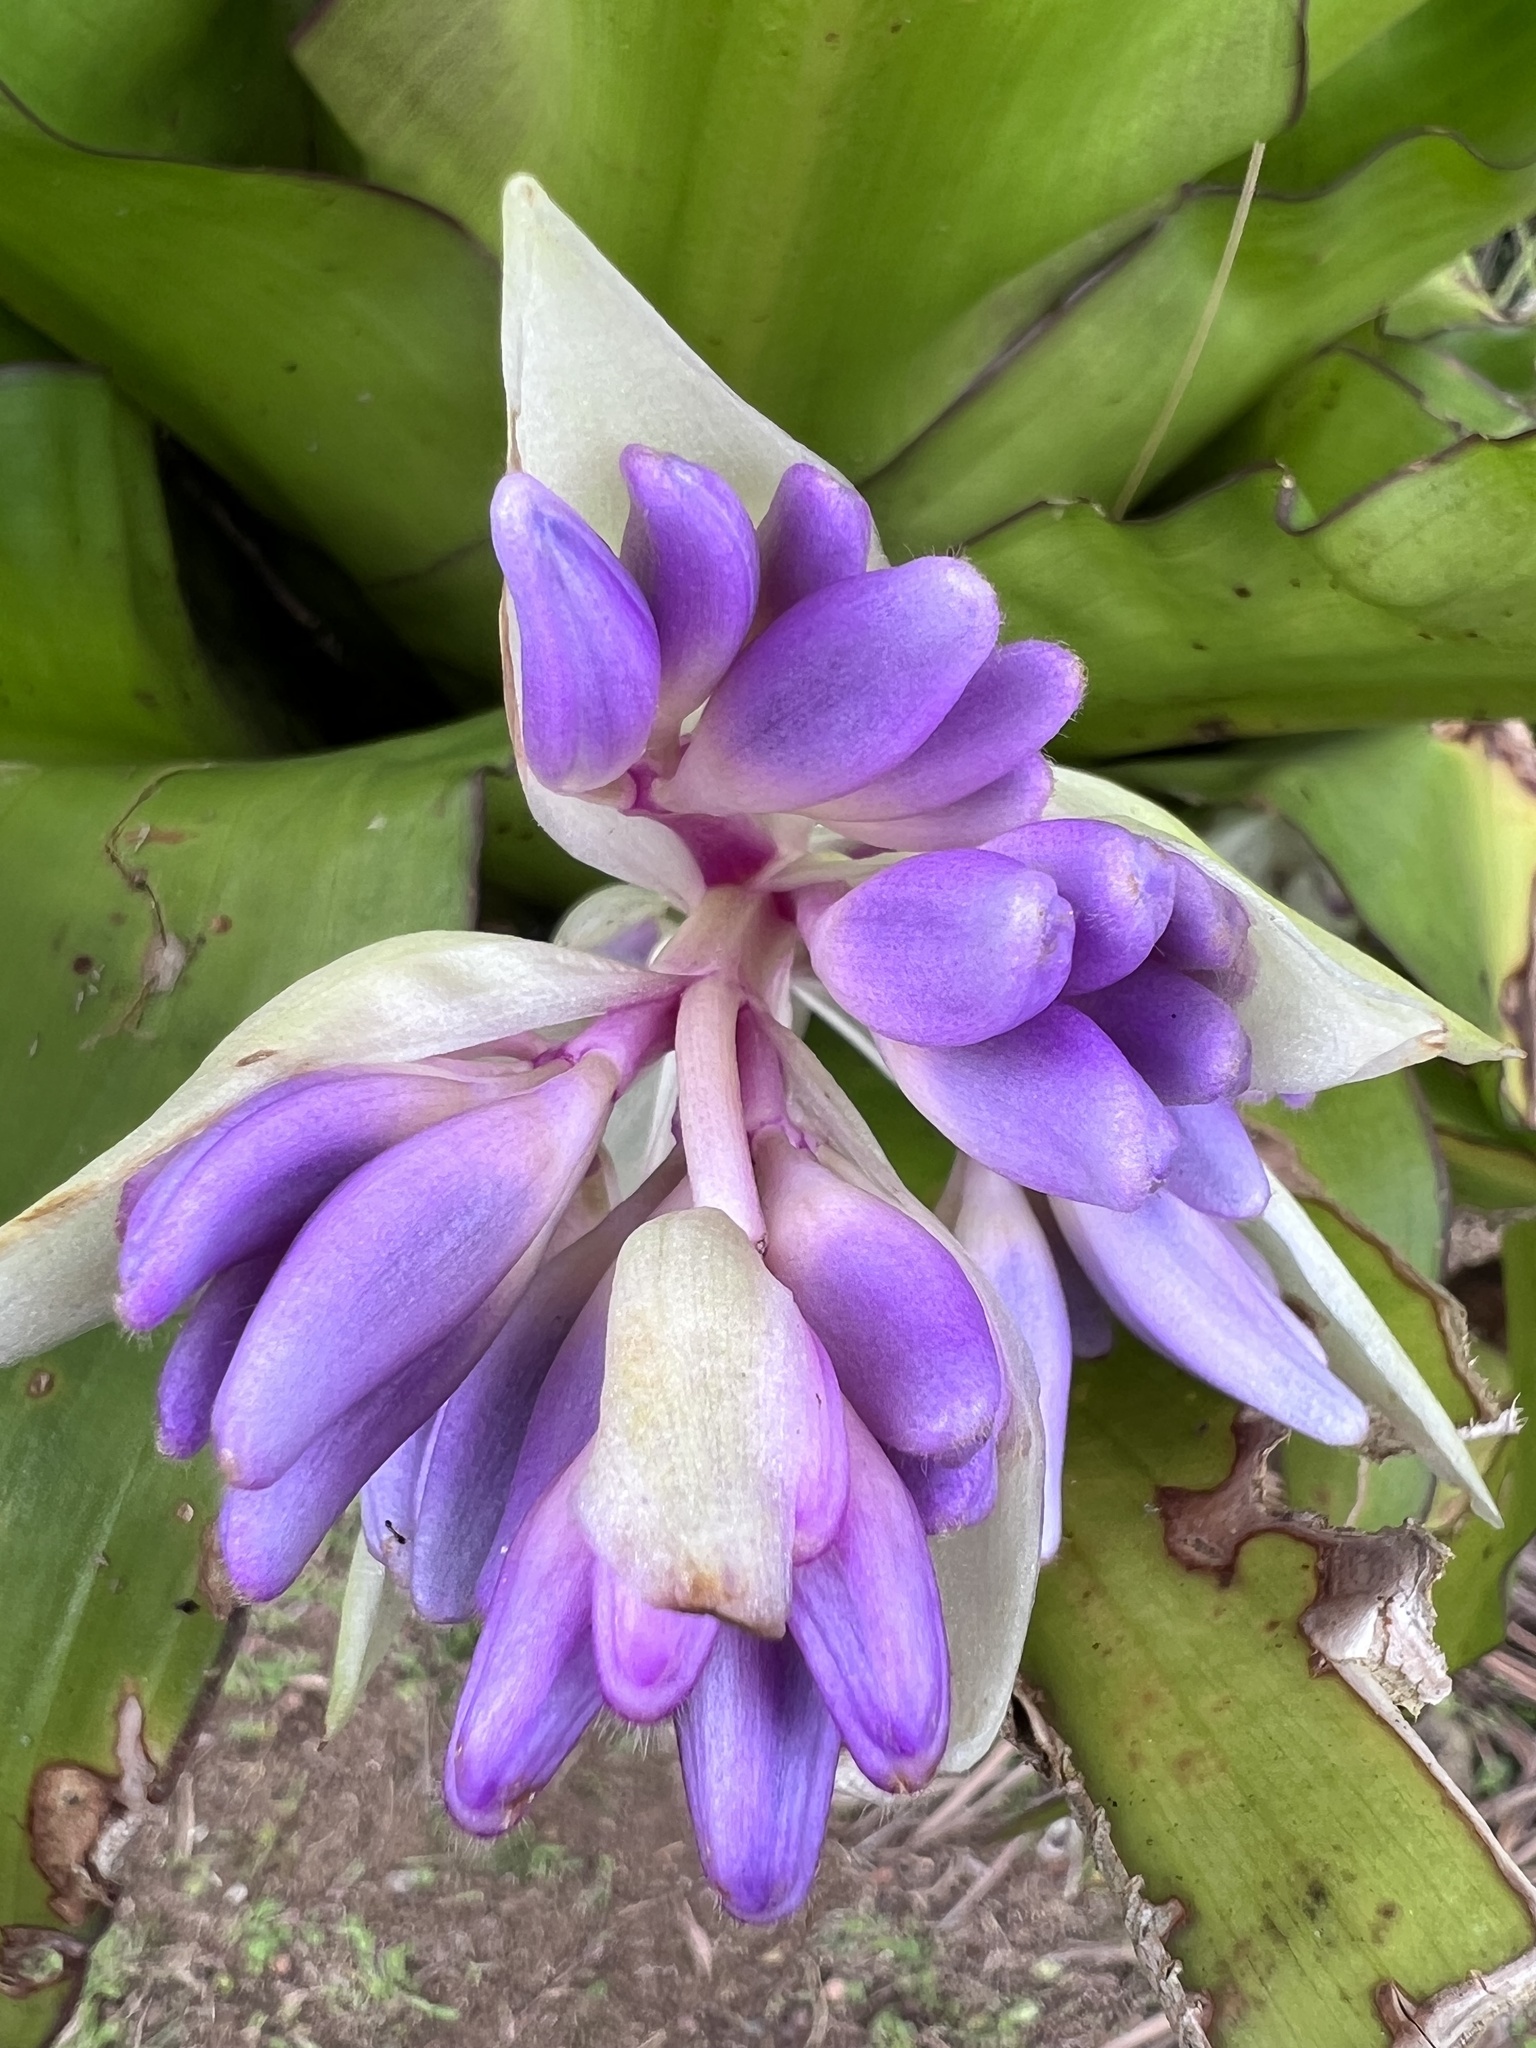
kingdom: Plantae
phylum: Tracheophyta
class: Liliopsida
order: Commelinales
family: Commelinaceae
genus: Cochliostema
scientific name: Cochliostema odoratissimum
